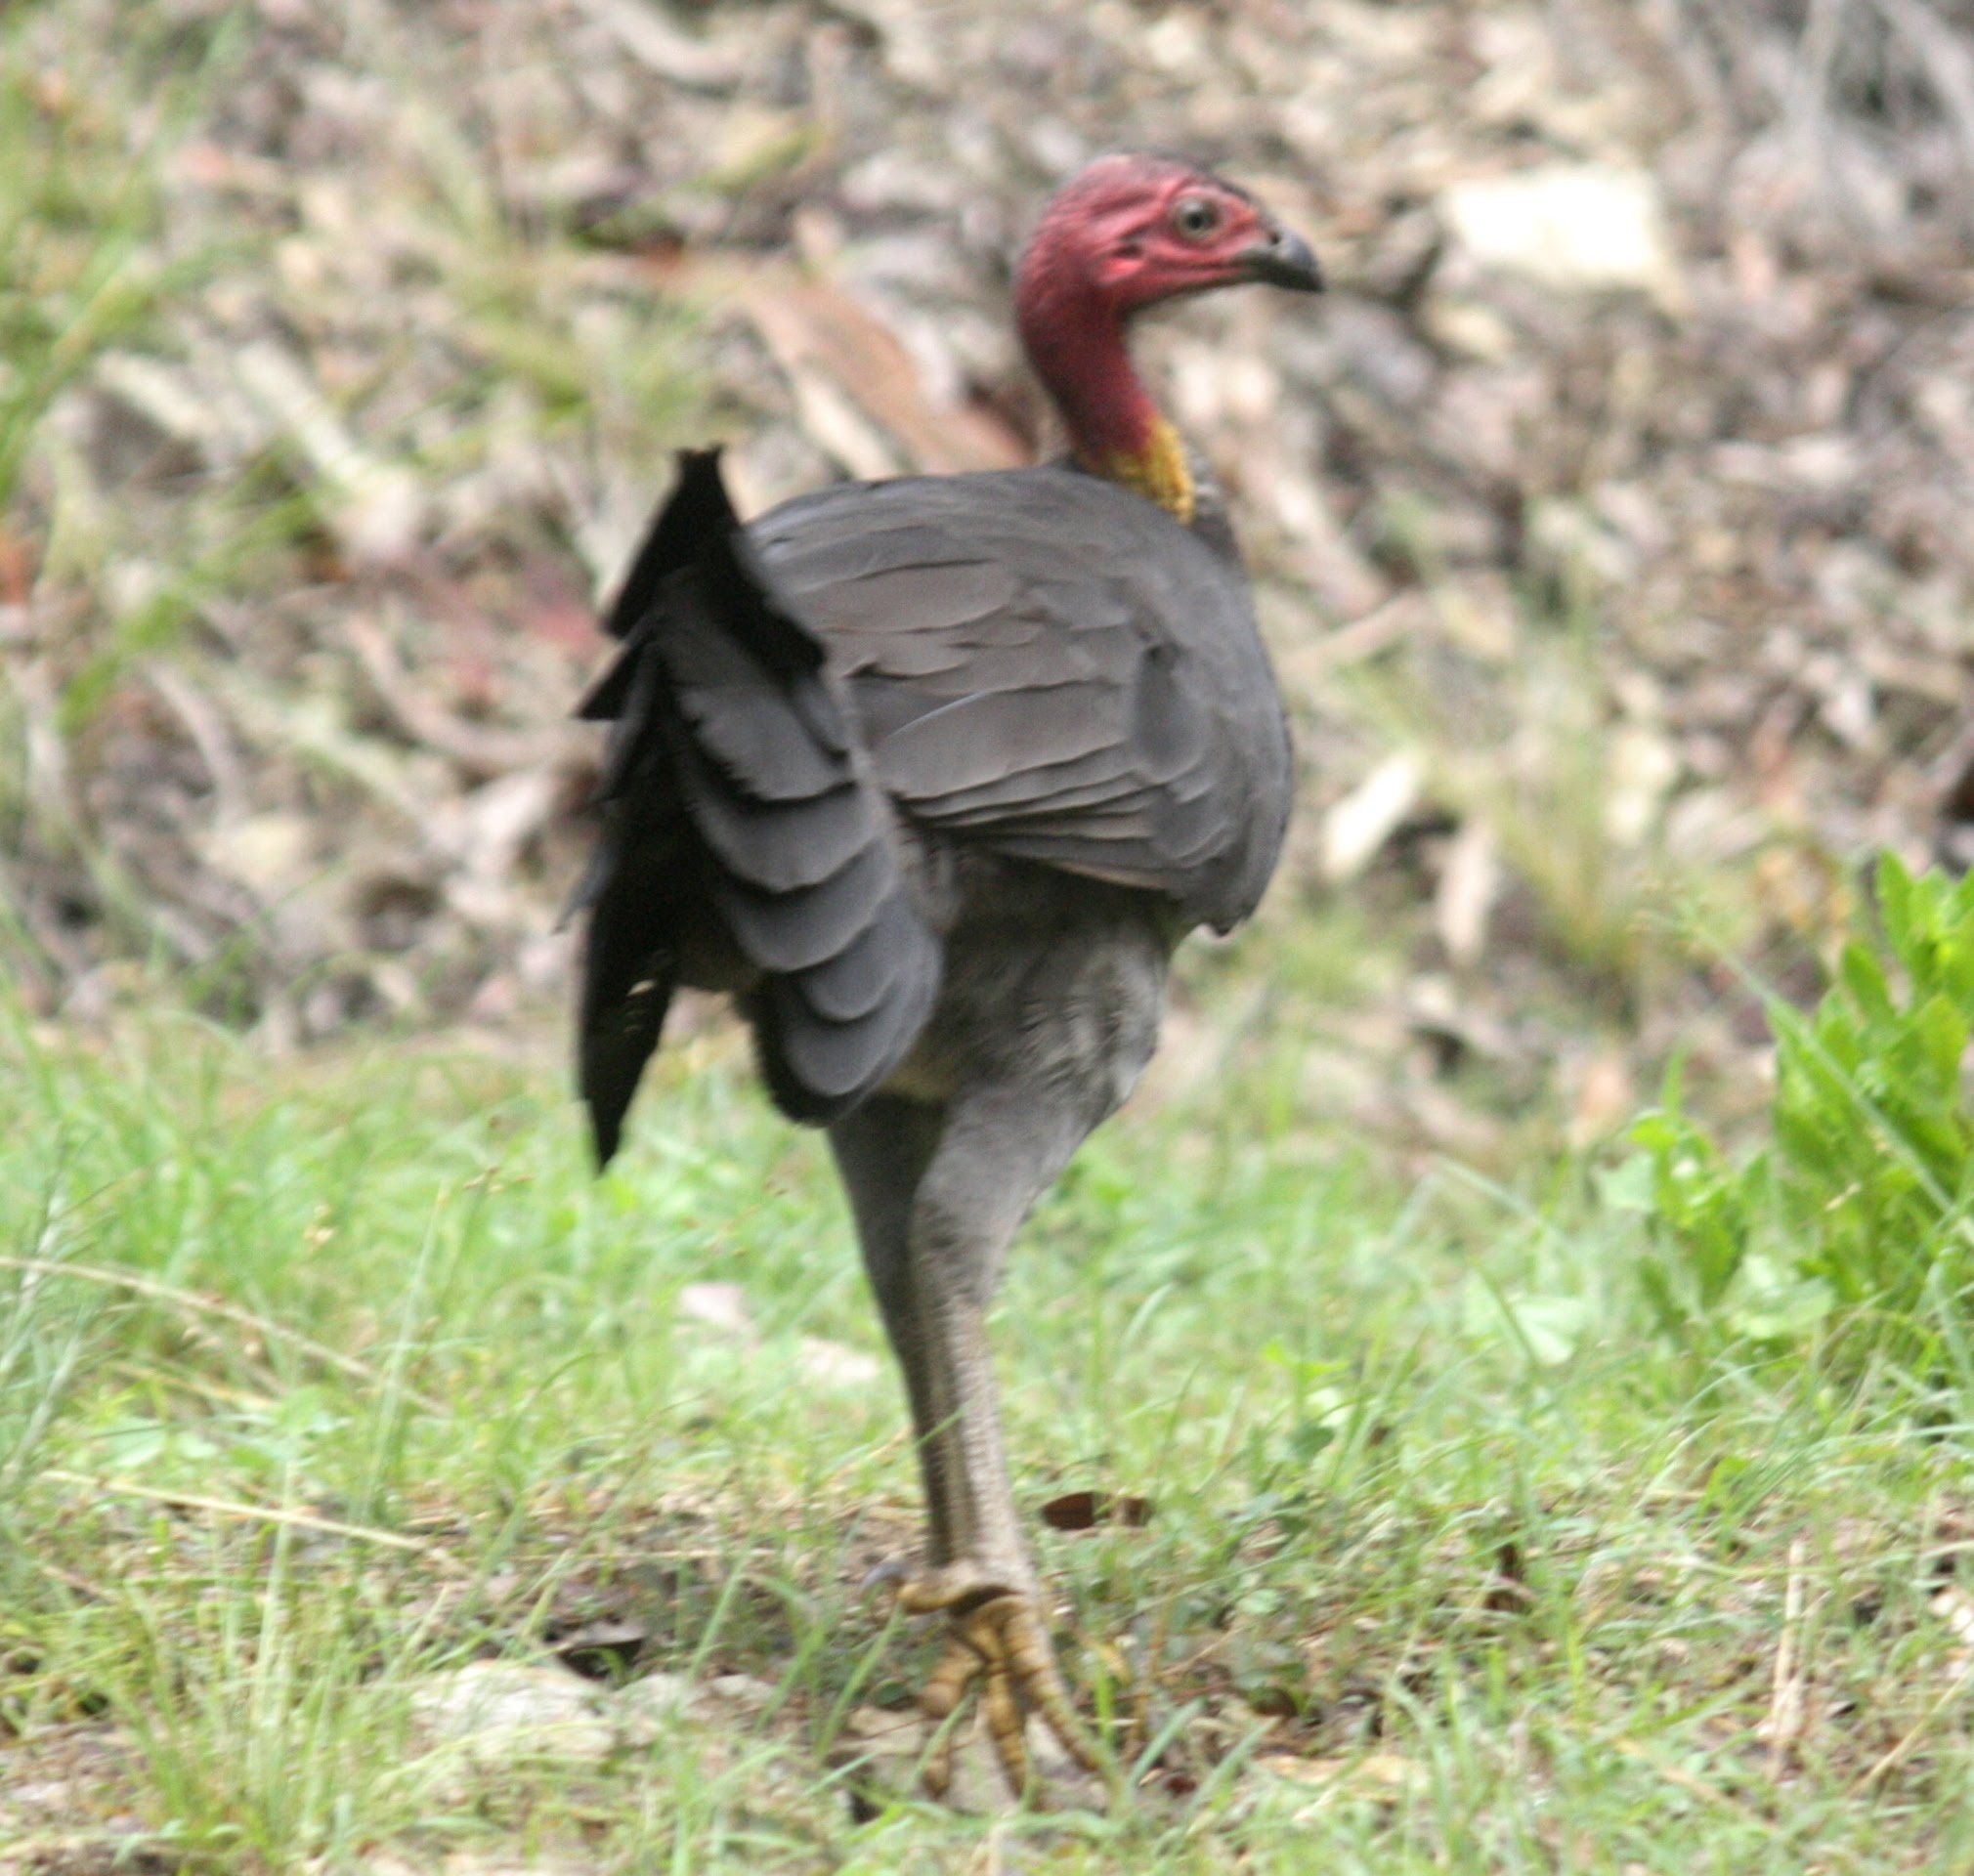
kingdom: Animalia
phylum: Chordata
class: Aves
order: Galliformes
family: Megapodiidae
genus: Alectura
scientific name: Alectura lathami
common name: Australian brushturkey
